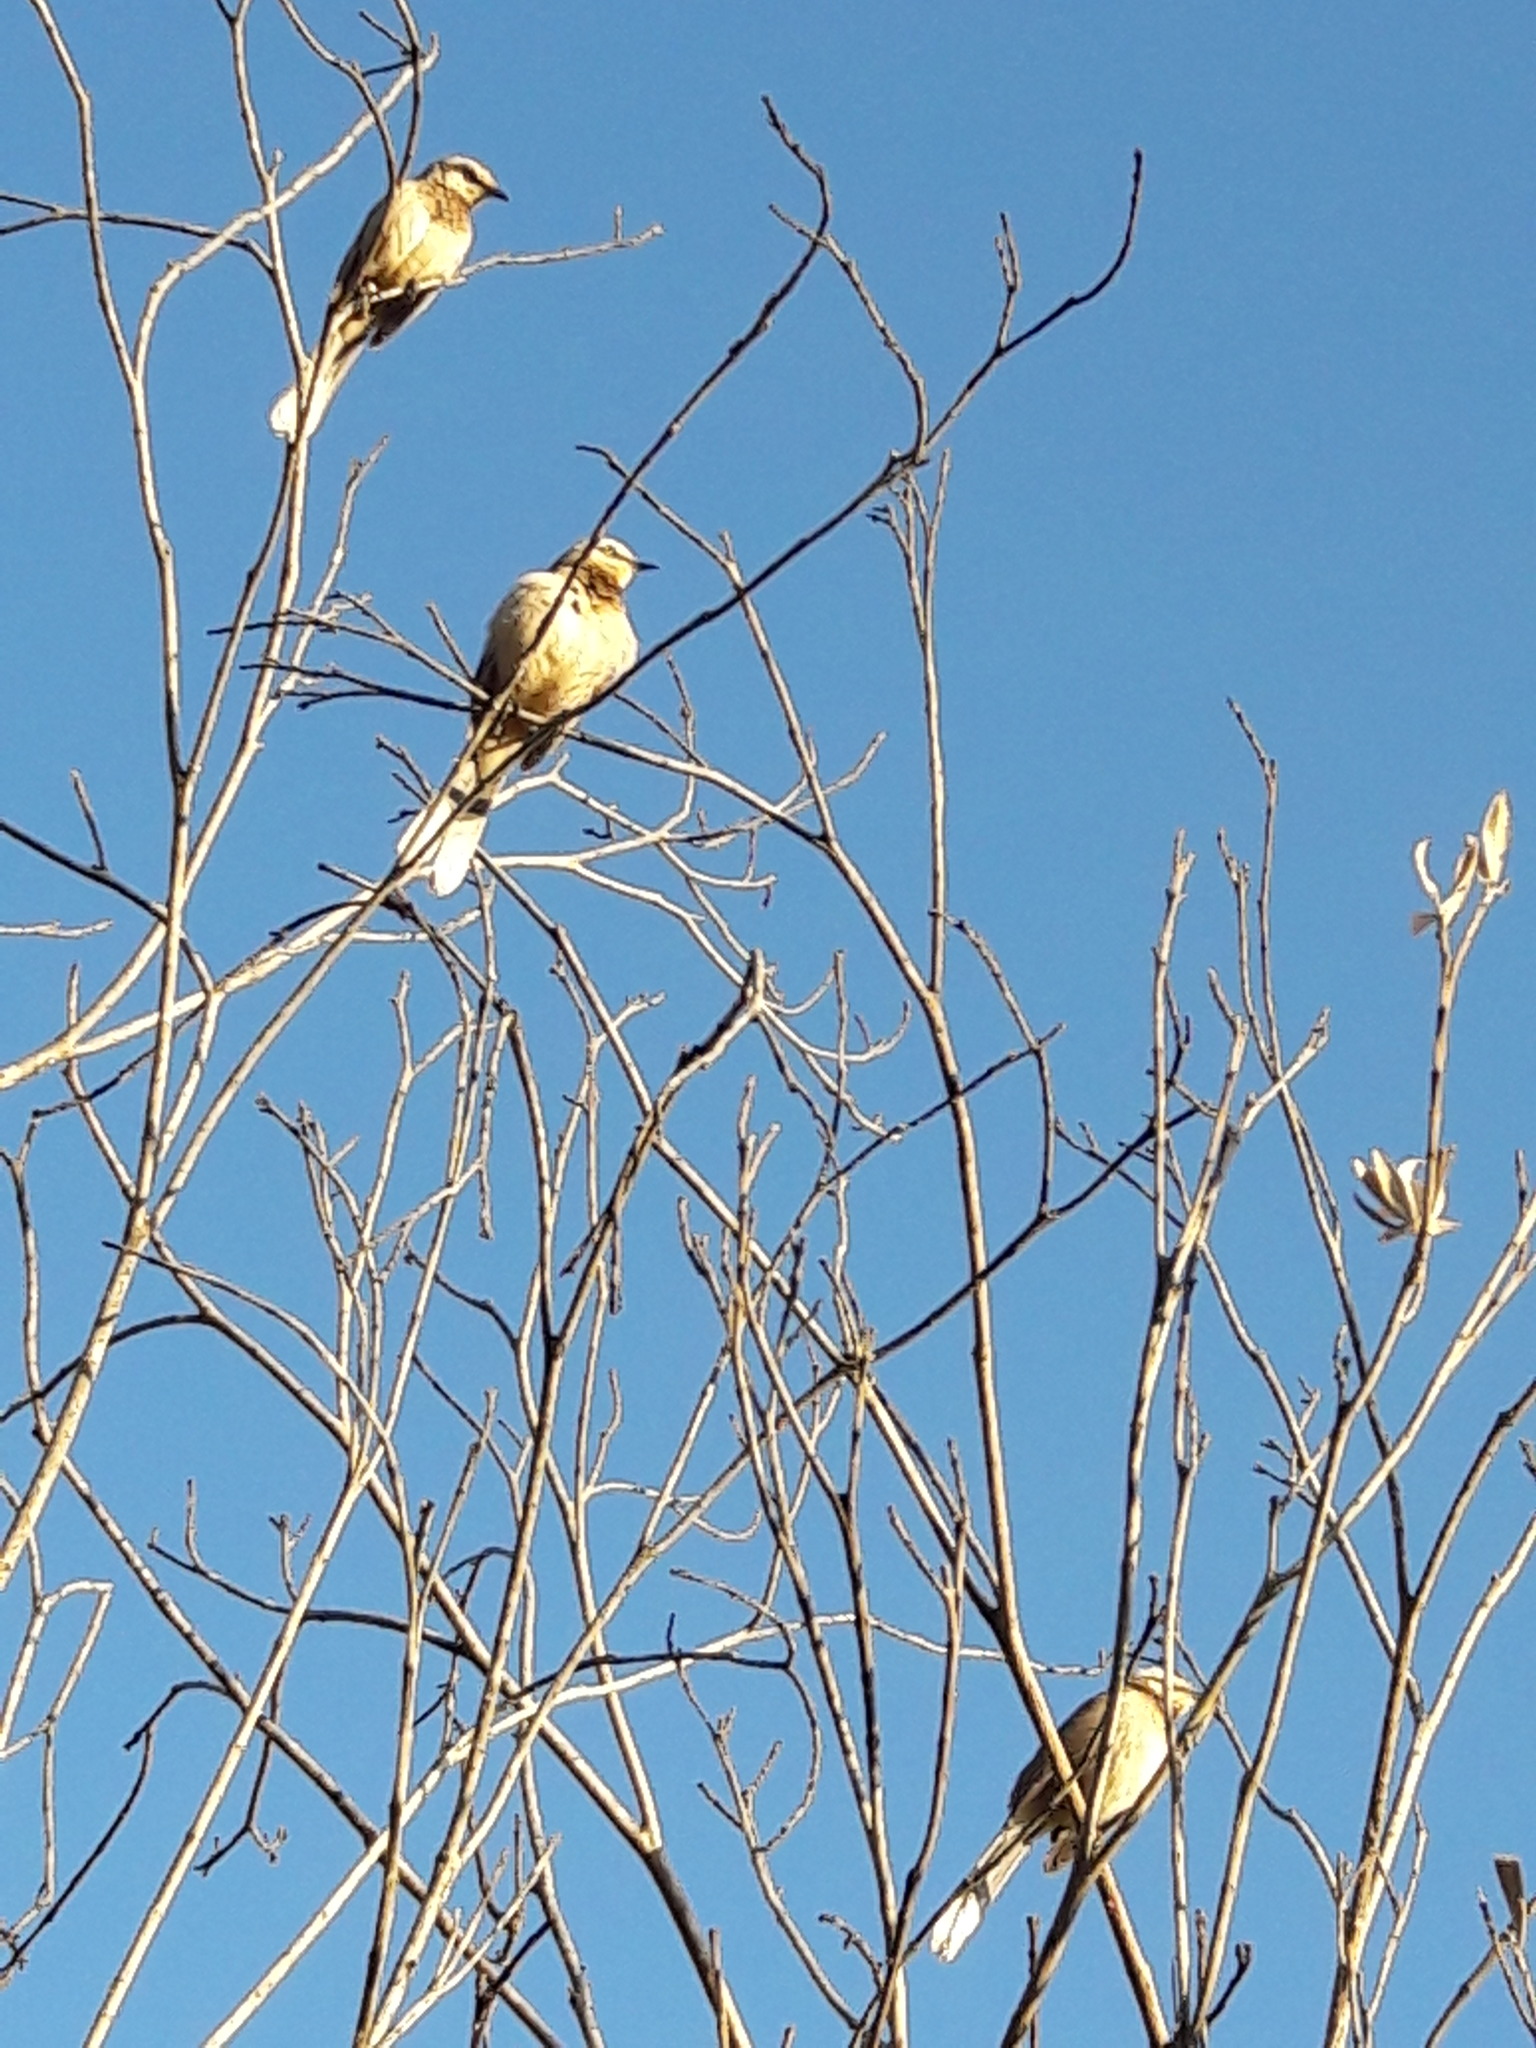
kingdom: Animalia
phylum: Chordata
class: Aves
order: Passeriformes
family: Mimidae
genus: Mimus
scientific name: Mimus saturninus
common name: Chalk-browed mockingbird
